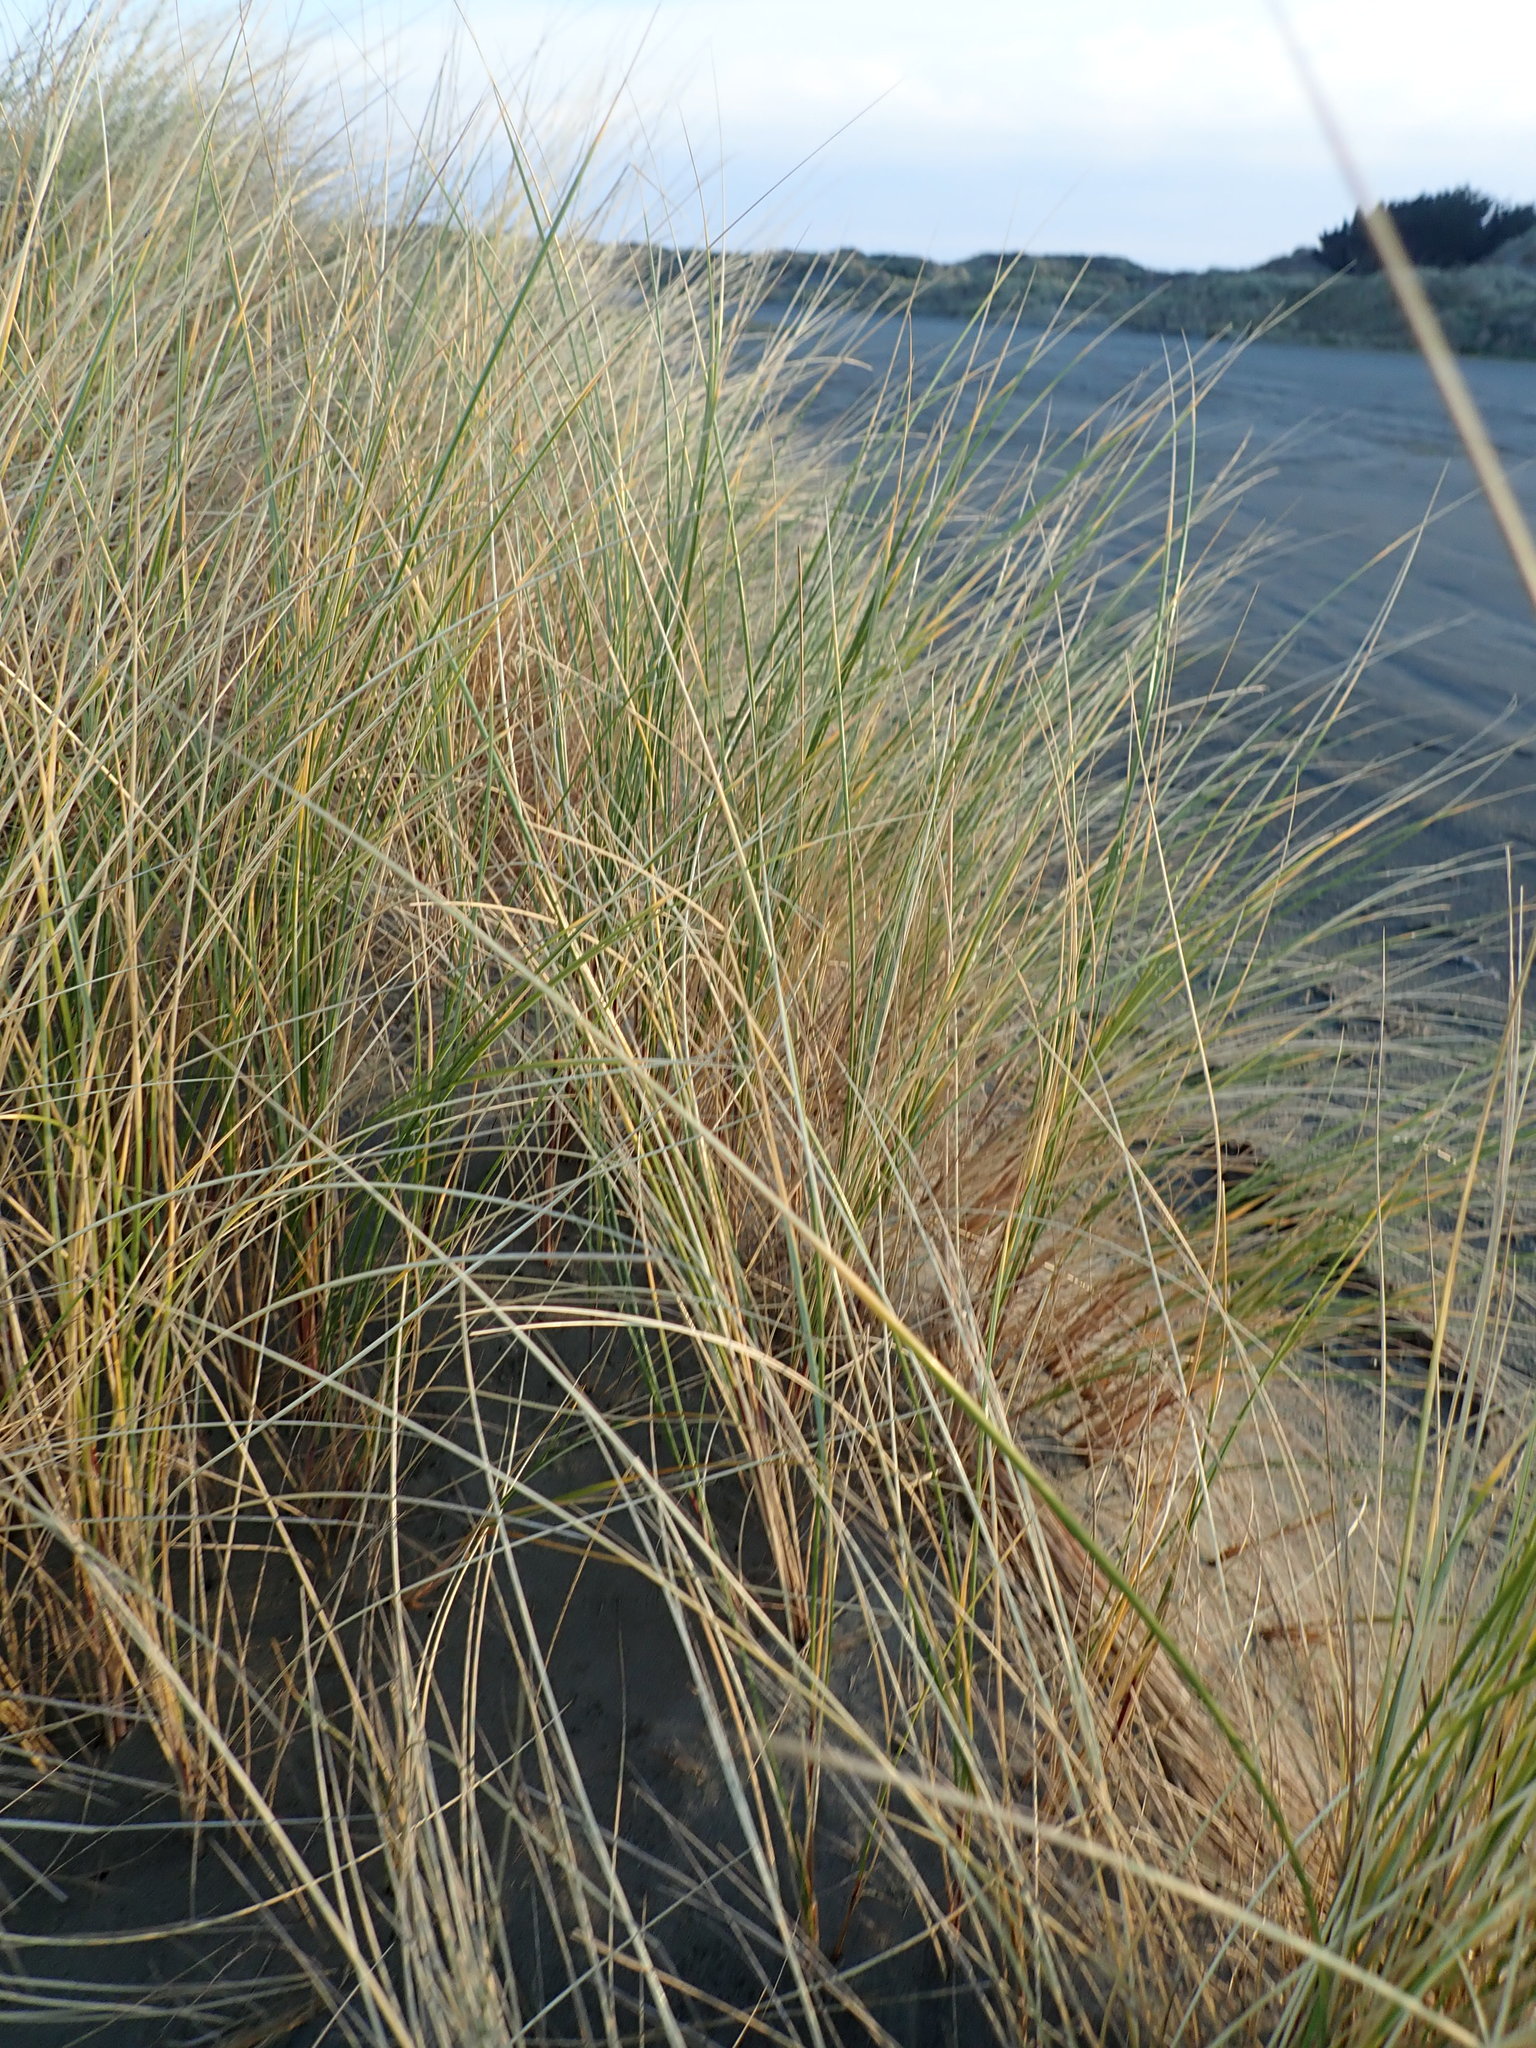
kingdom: Plantae
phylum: Tracheophyta
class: Liliopsida
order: Poales
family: Poaceae
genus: Calamagrostis
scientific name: Calamagrostis arenaria
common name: European beachgrass
